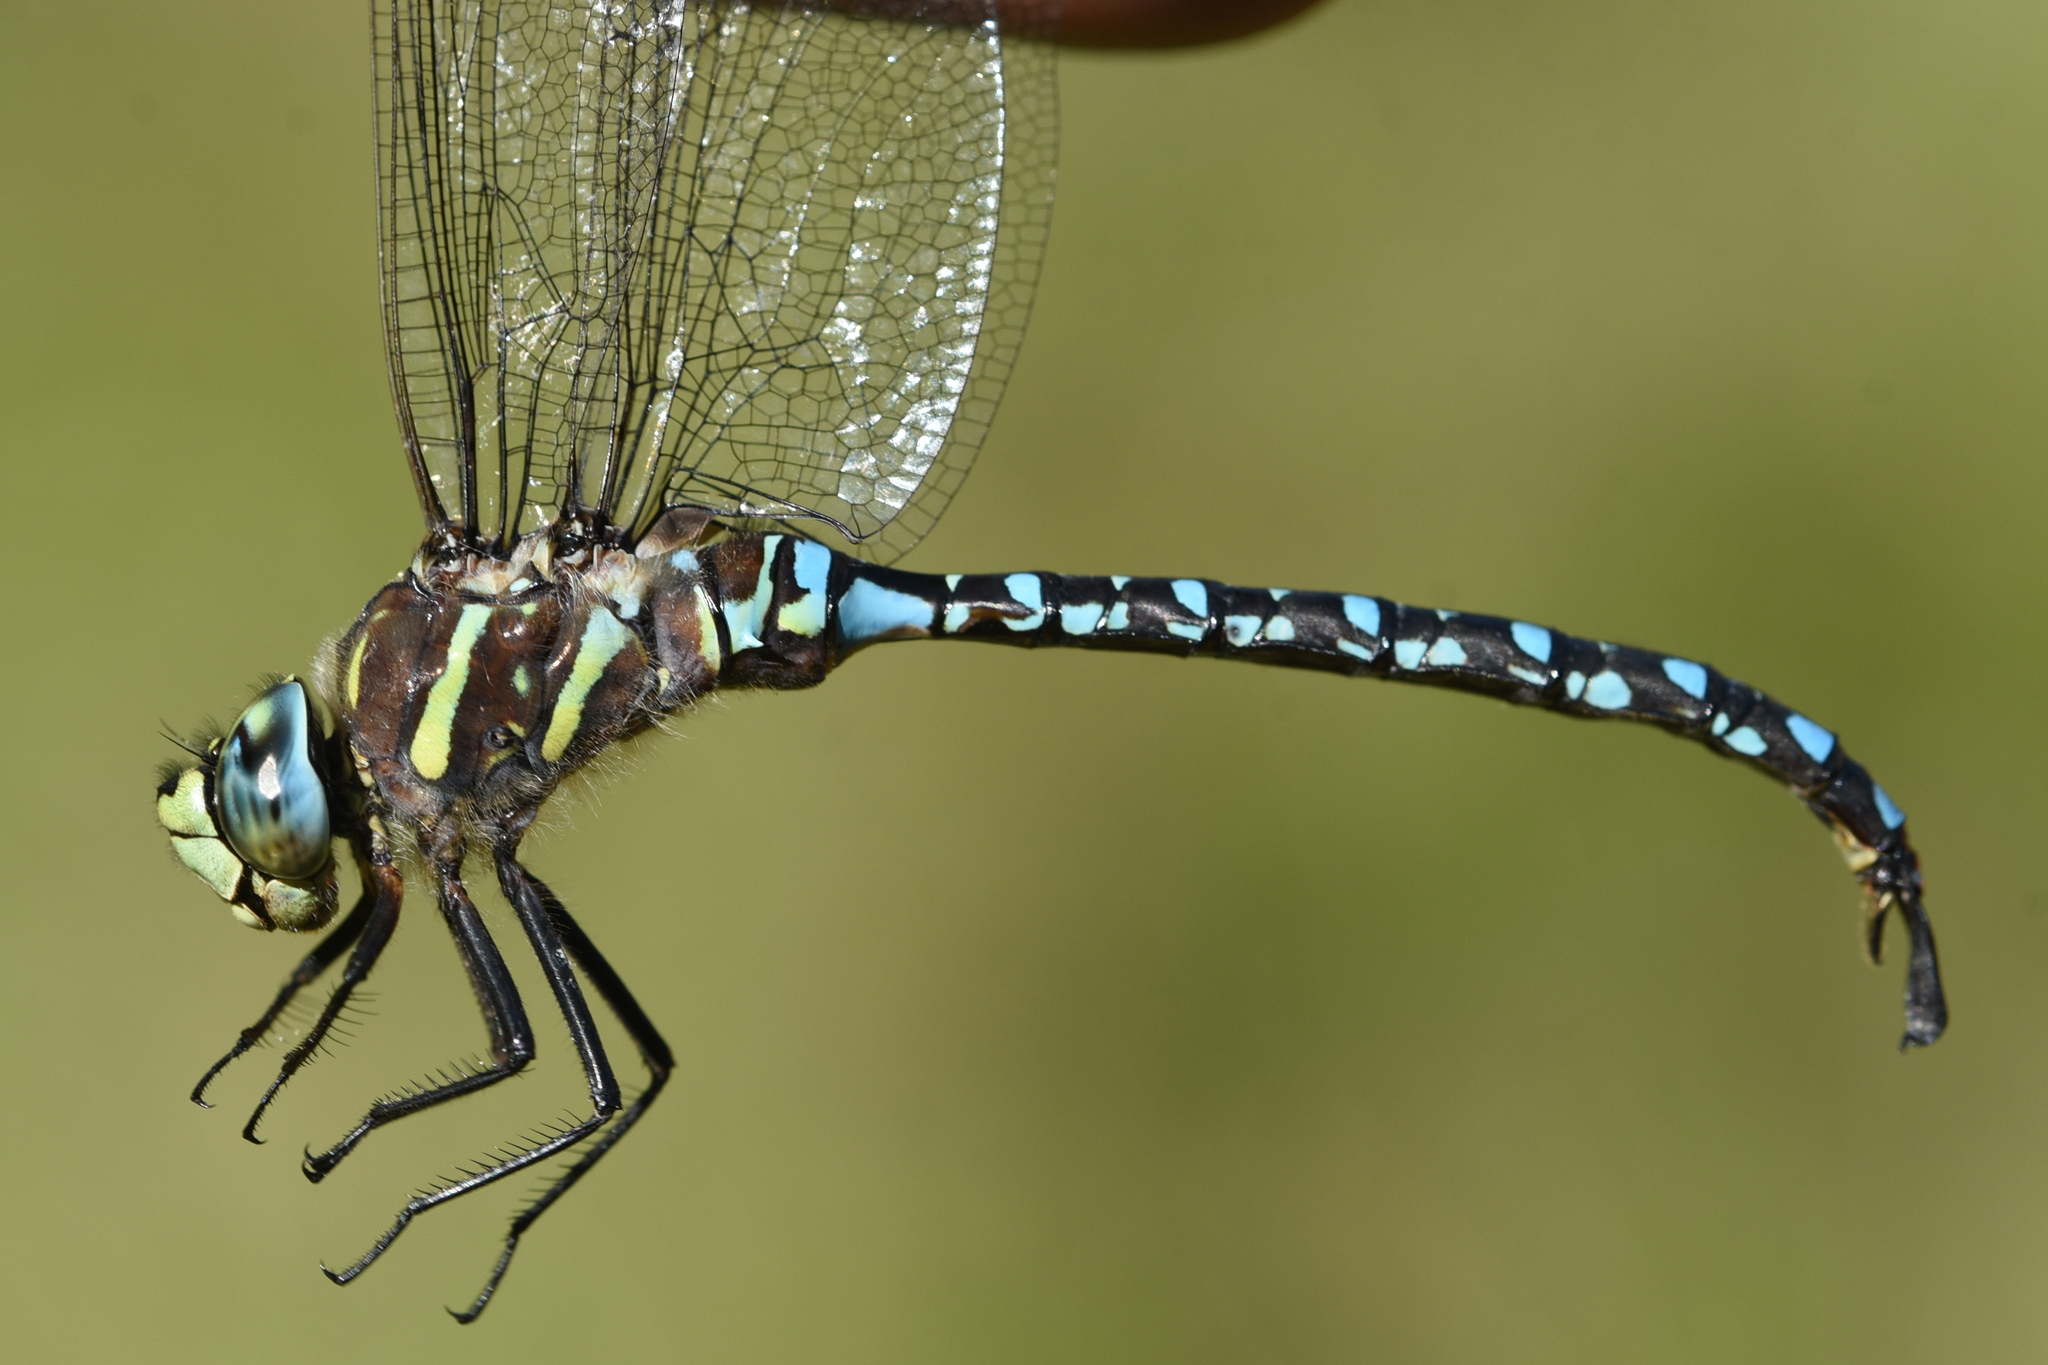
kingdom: Animalia
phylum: Arthropoda
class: Insecta
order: Odonata
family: Aeshnidae
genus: Aeshna
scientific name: Aeshna palmata
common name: Paddle-tailed darner
